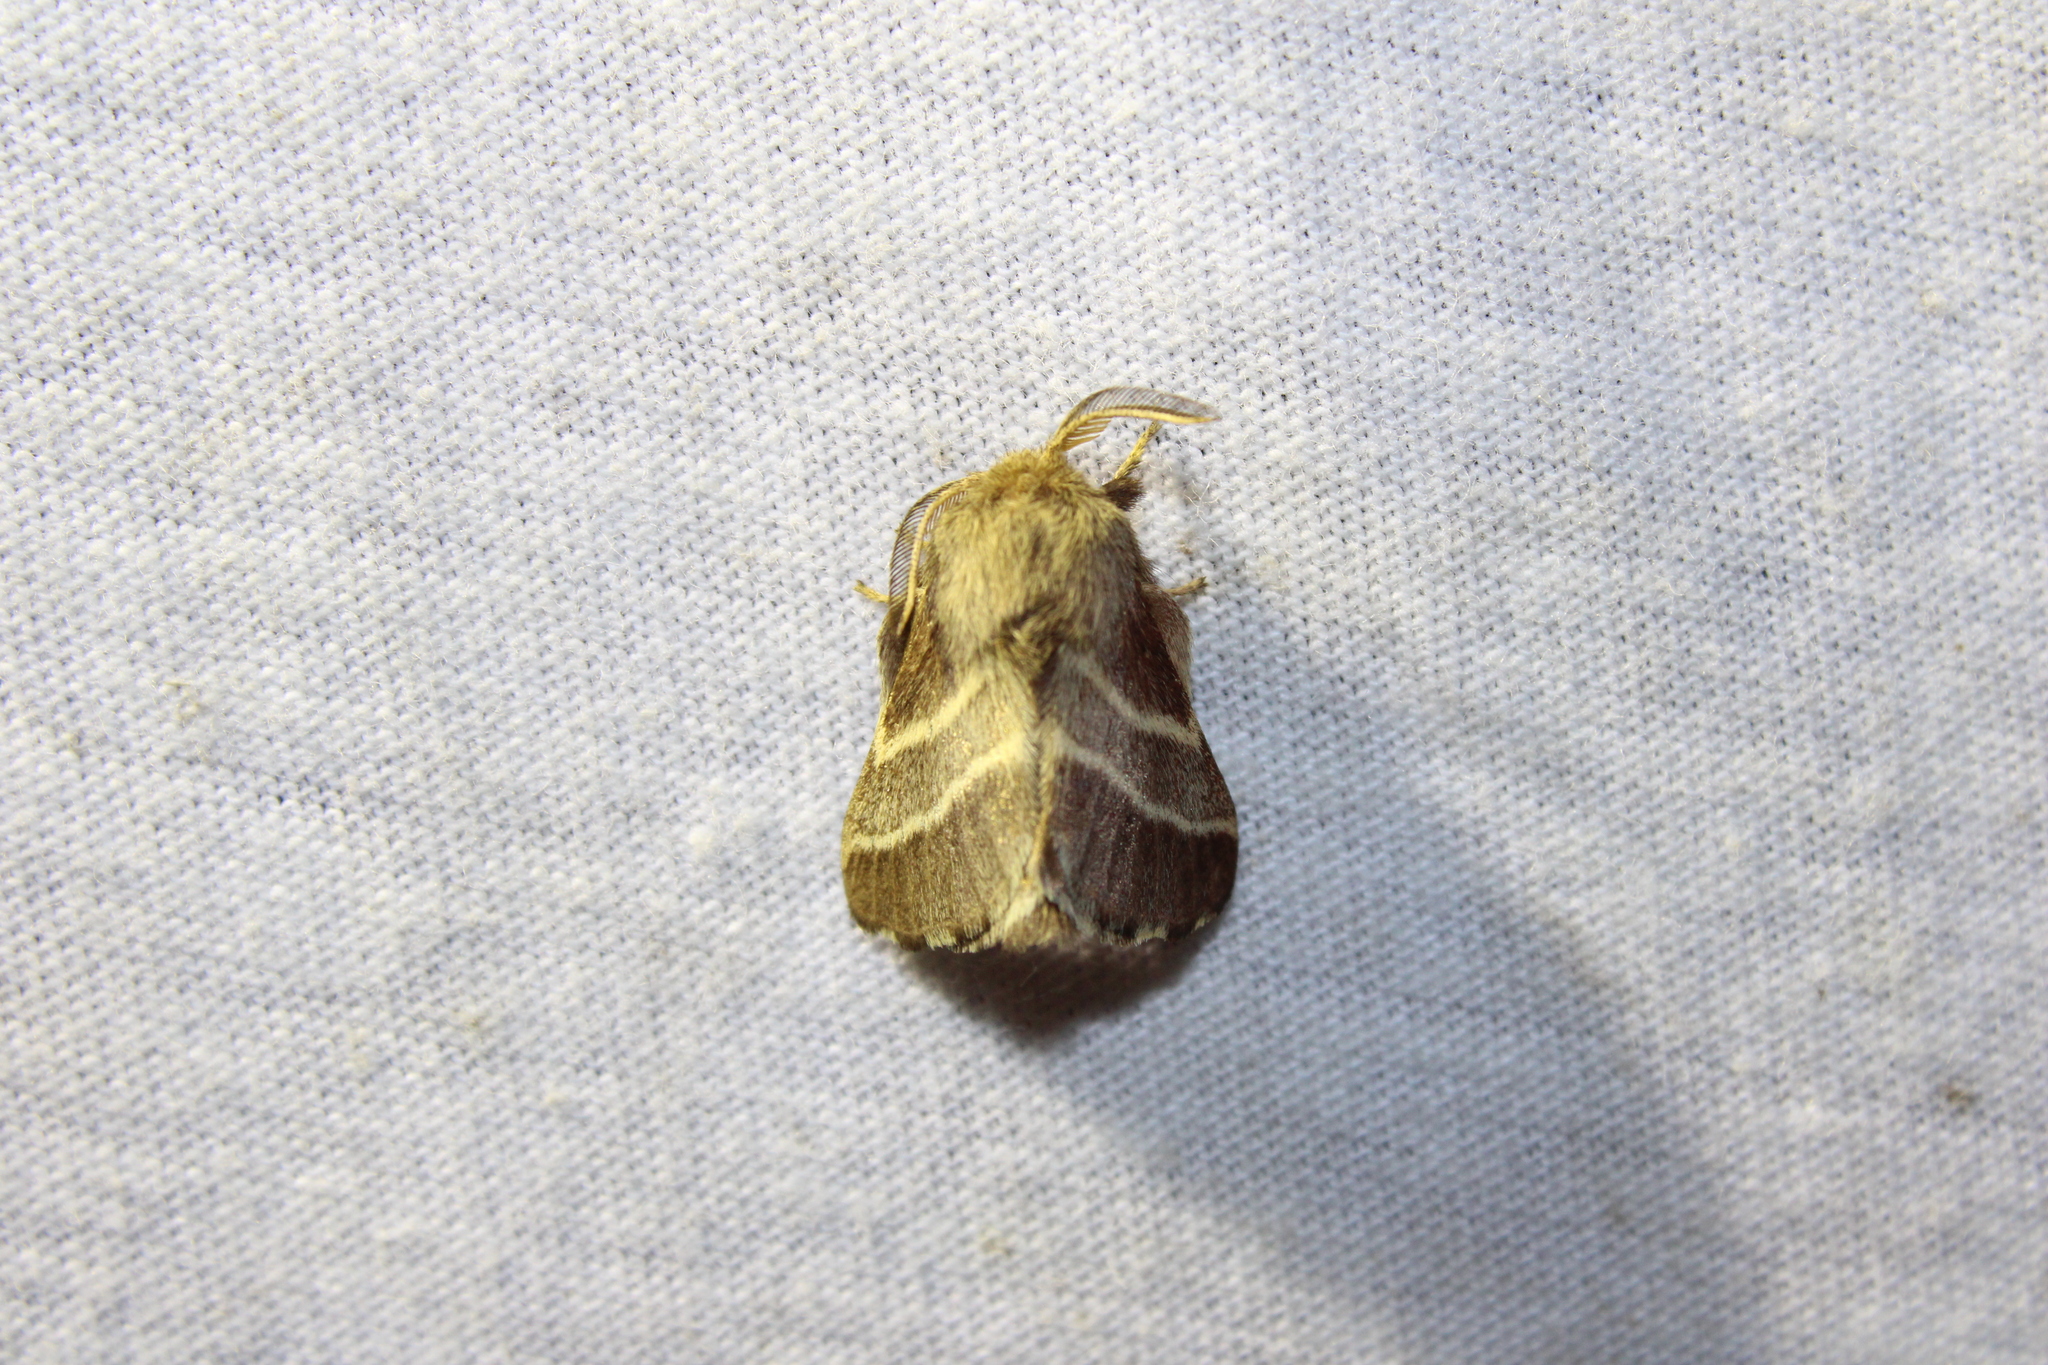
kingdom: Animalia
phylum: Arthropoda
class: Insecta
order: Lepidoptera
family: Lasiocampidae
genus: Malacosoma
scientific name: Malacosoma americana
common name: Eastern tent caterpillar moth
